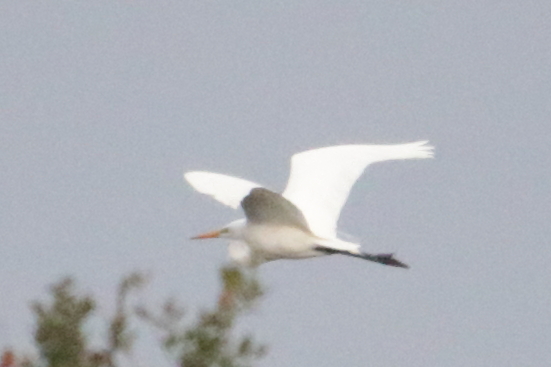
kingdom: Animalia
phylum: Chordata
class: Aves
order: Pelecaniformes
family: Ardeidae
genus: Ardea
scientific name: Ardea alba
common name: Great egret
